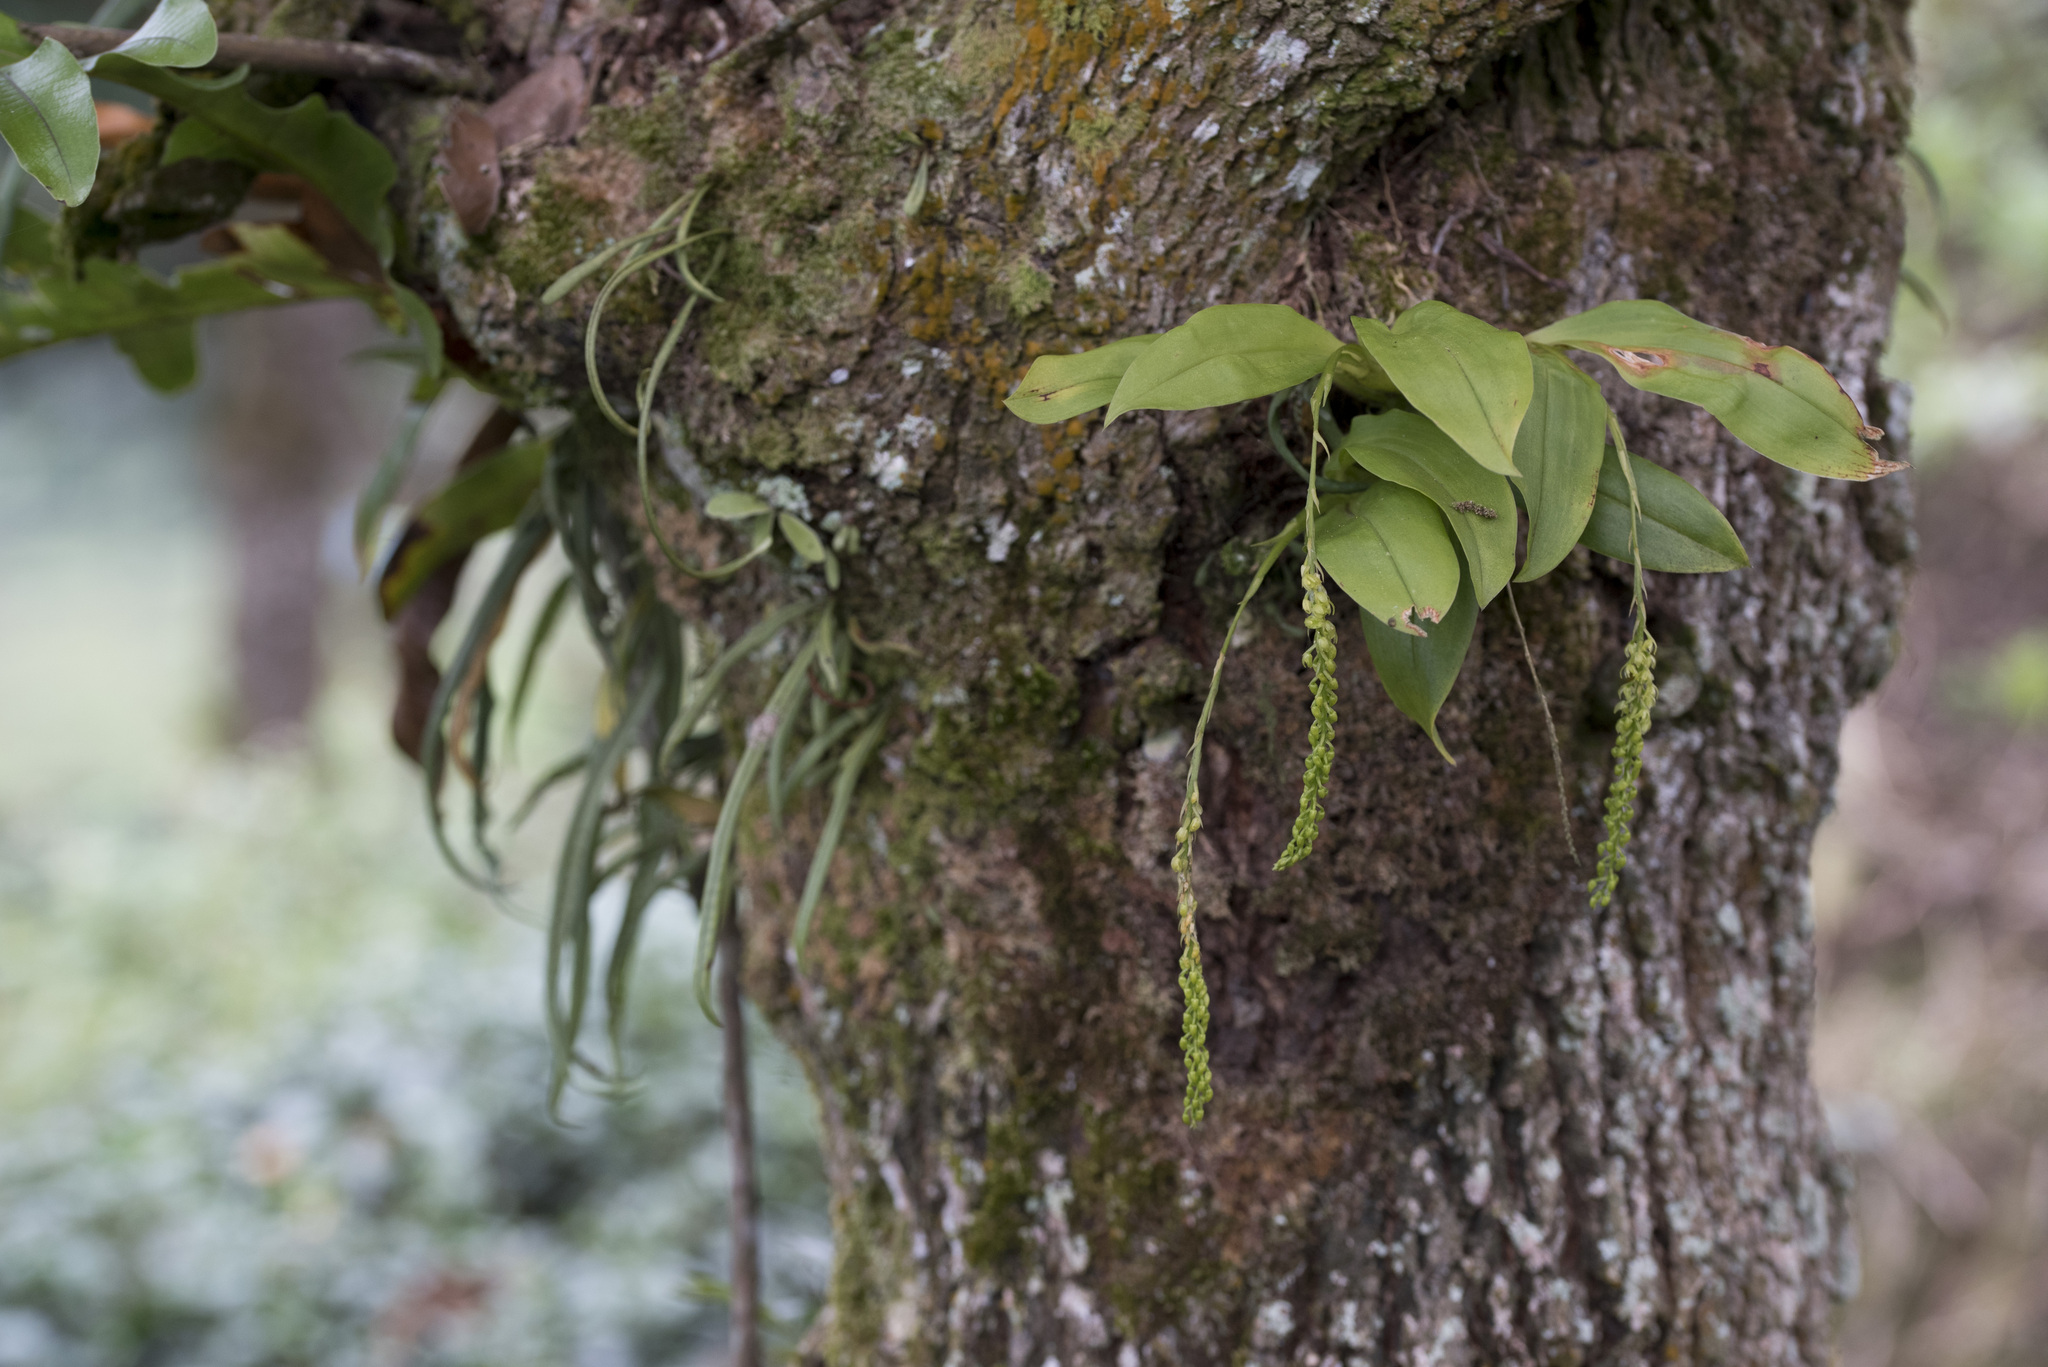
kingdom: Plantae
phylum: Tracheophyta
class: Liliopsida
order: Asparagales
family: Orchidaceae
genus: Liparis
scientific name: Liparis elliptica
